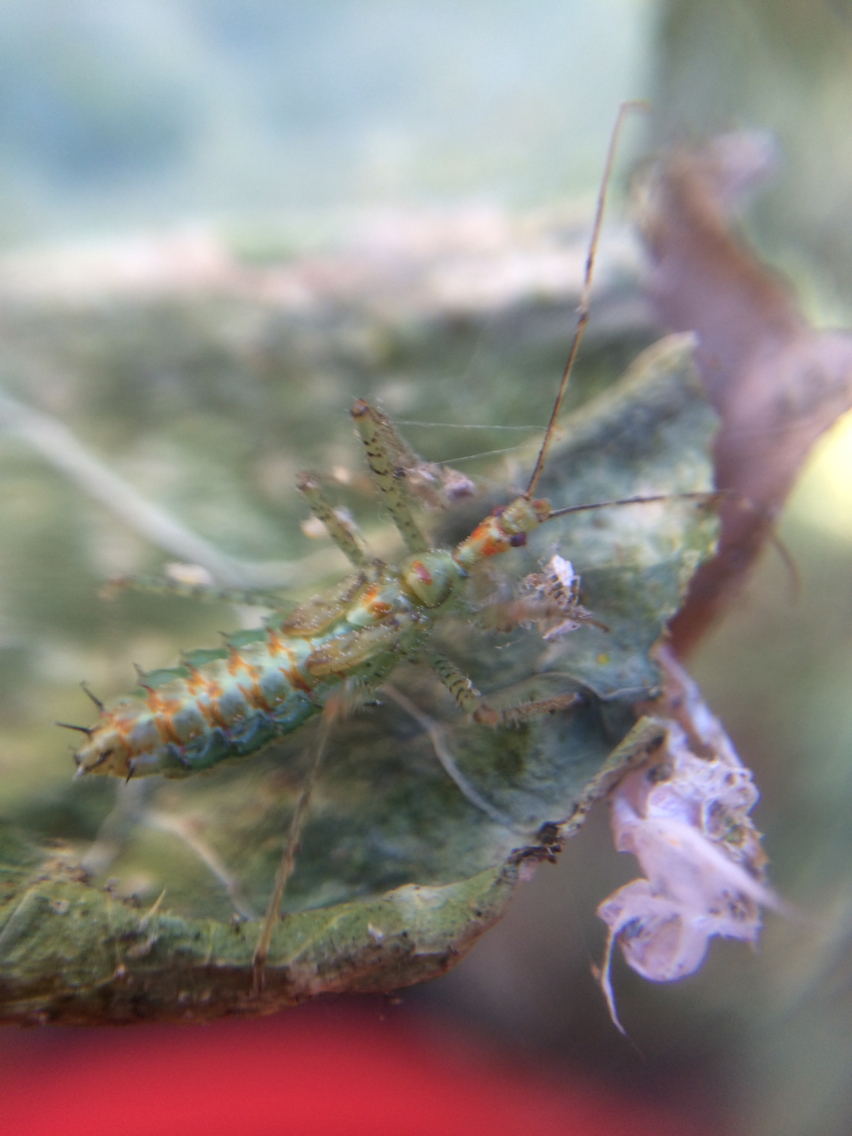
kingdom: Animalia
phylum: Arthropoda
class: Insecta
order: Hemiptera
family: Reduviidae
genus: Zelus
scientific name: Zelus renardii
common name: Assassin bug
